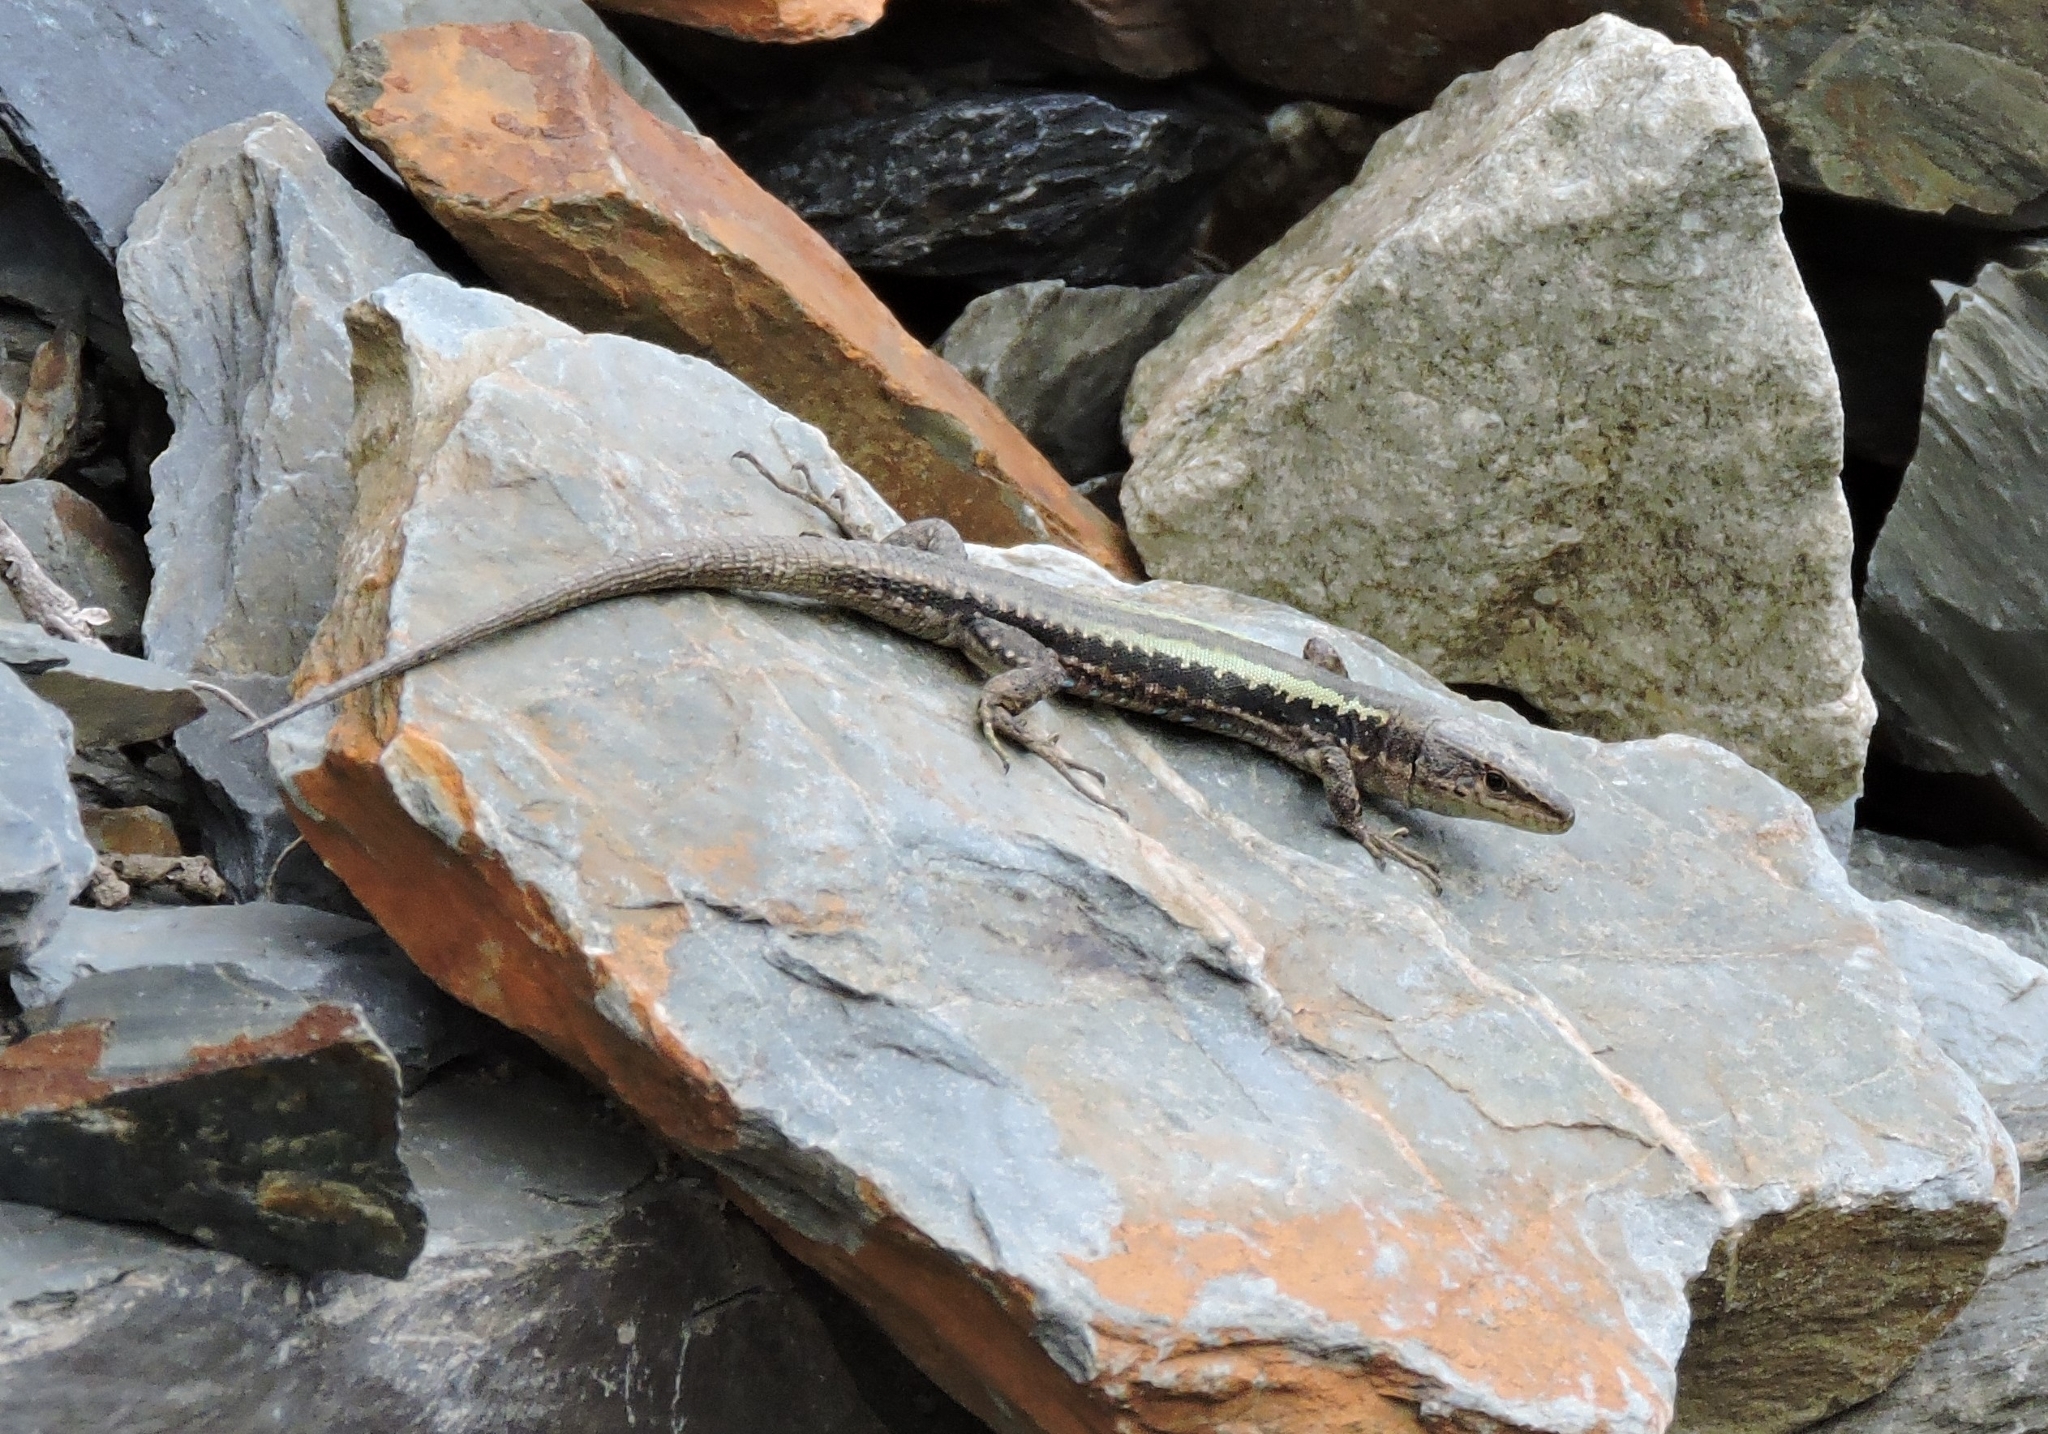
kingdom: Animalia
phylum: Chordata
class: Squamata
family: Lacertidae
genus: Darevskia
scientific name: Darevskia caucasica
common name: Caucasian llzard
